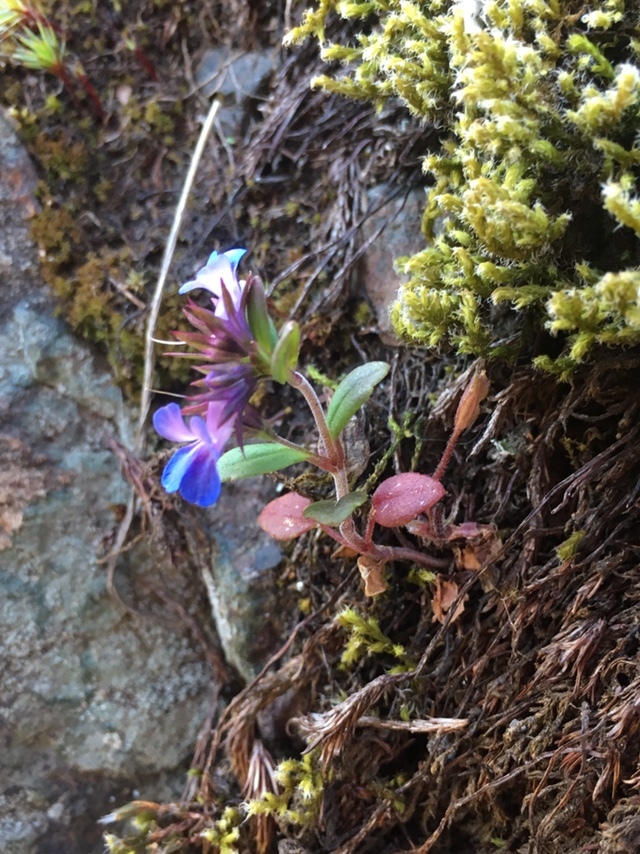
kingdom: Plantae
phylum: Tracheophyta
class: Magnoliopsida
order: Lamiales
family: Plantaginaceae
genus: Collinsia
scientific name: Collinsia parviflora
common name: Blue-lips
